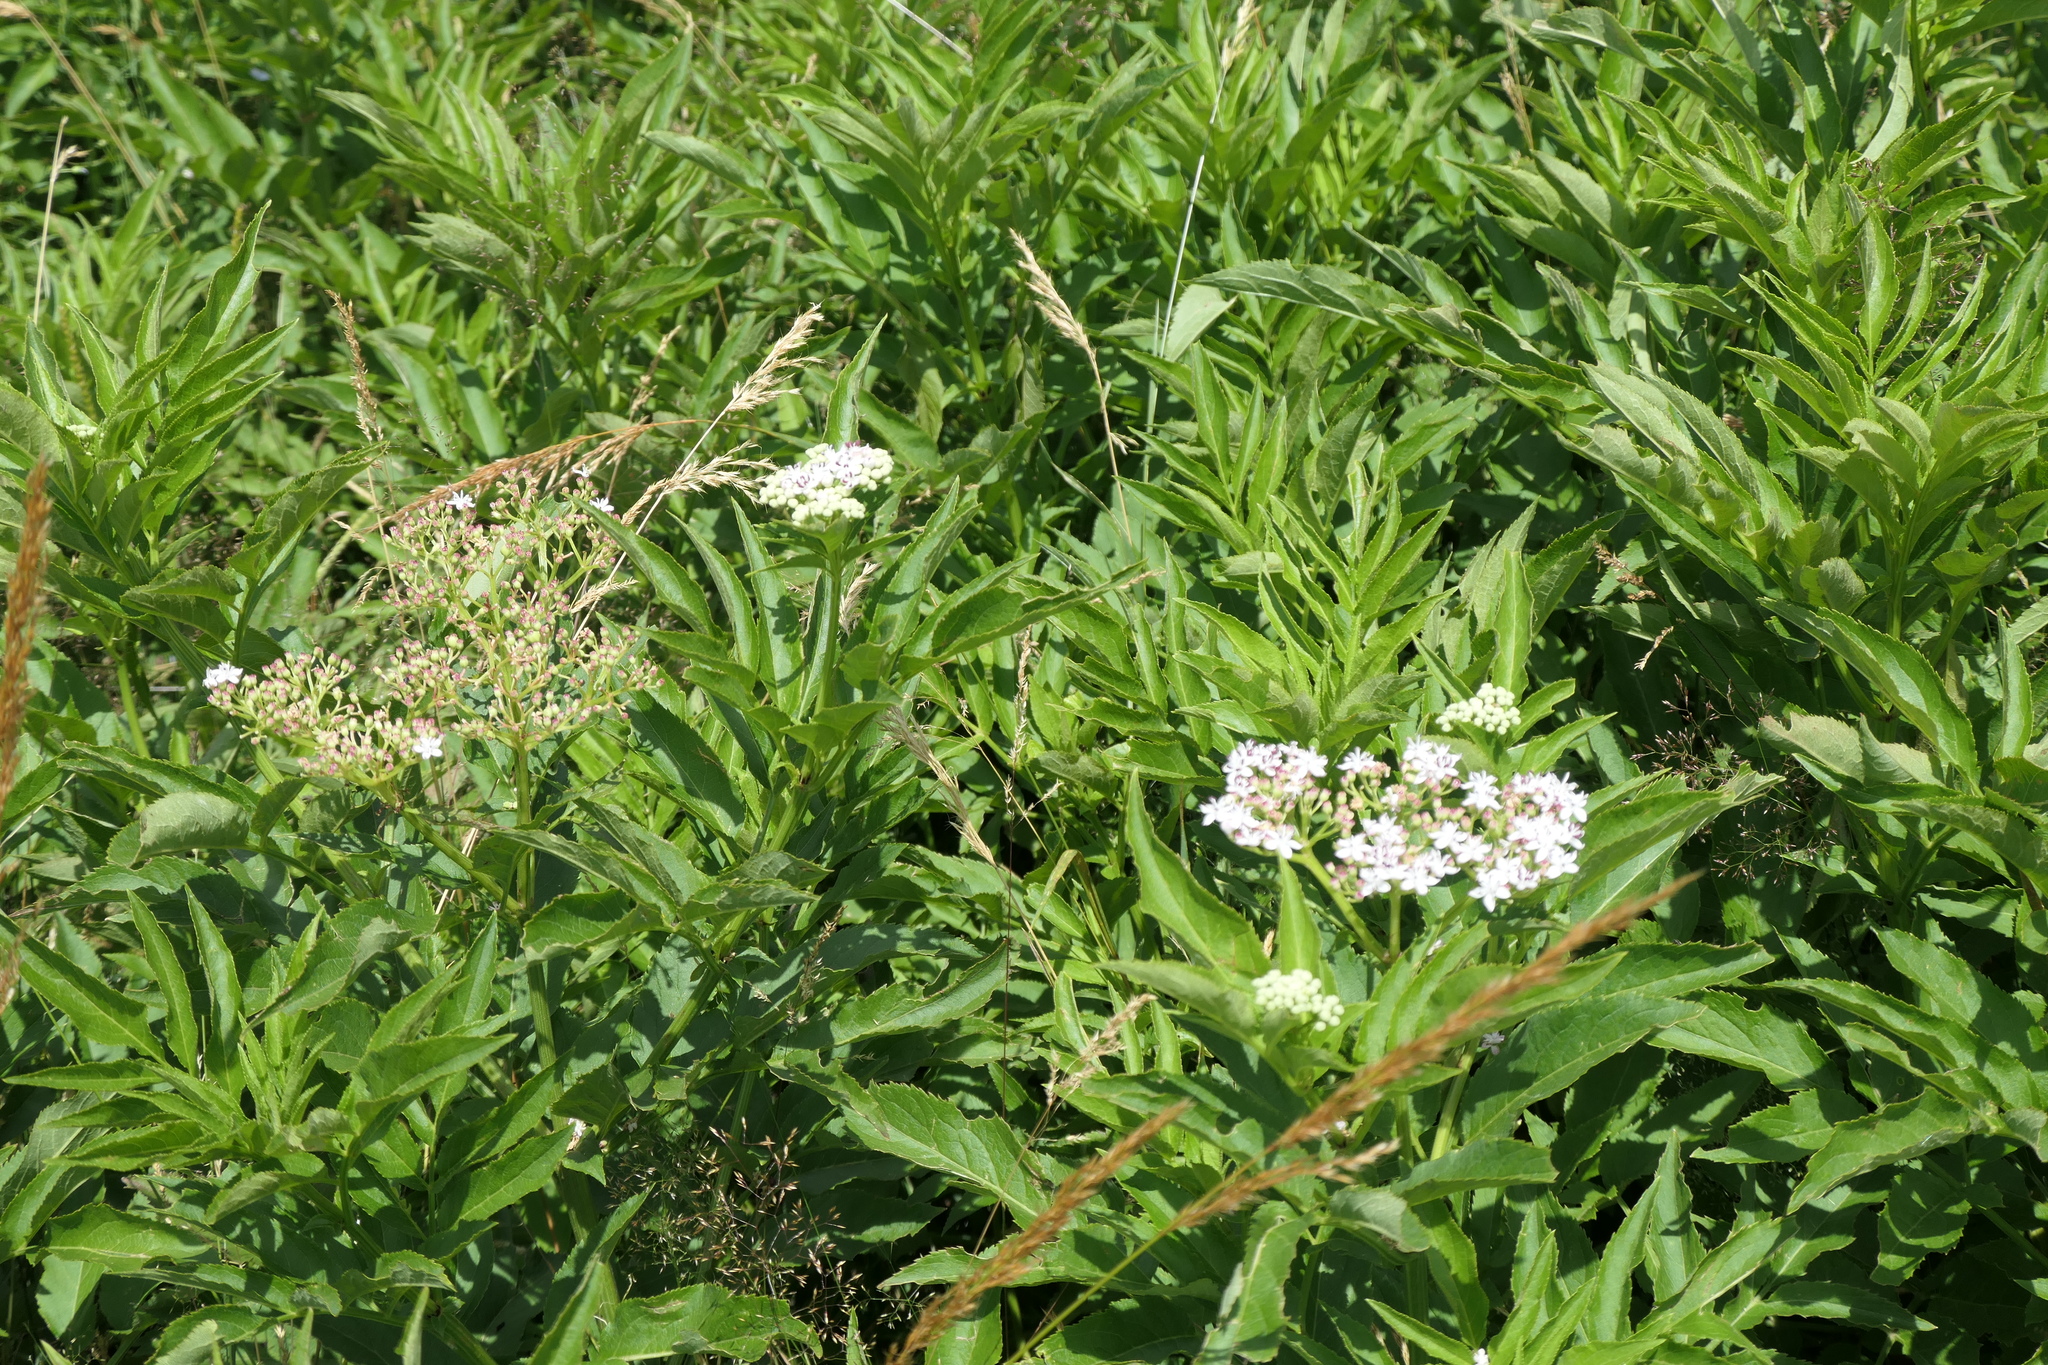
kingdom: Plantae
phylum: Tracheophyta
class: Magnoliopsida
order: Dipsacales
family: Viburnaceae
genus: Sambucus
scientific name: Sambucus ebulus
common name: Dwarf elder
